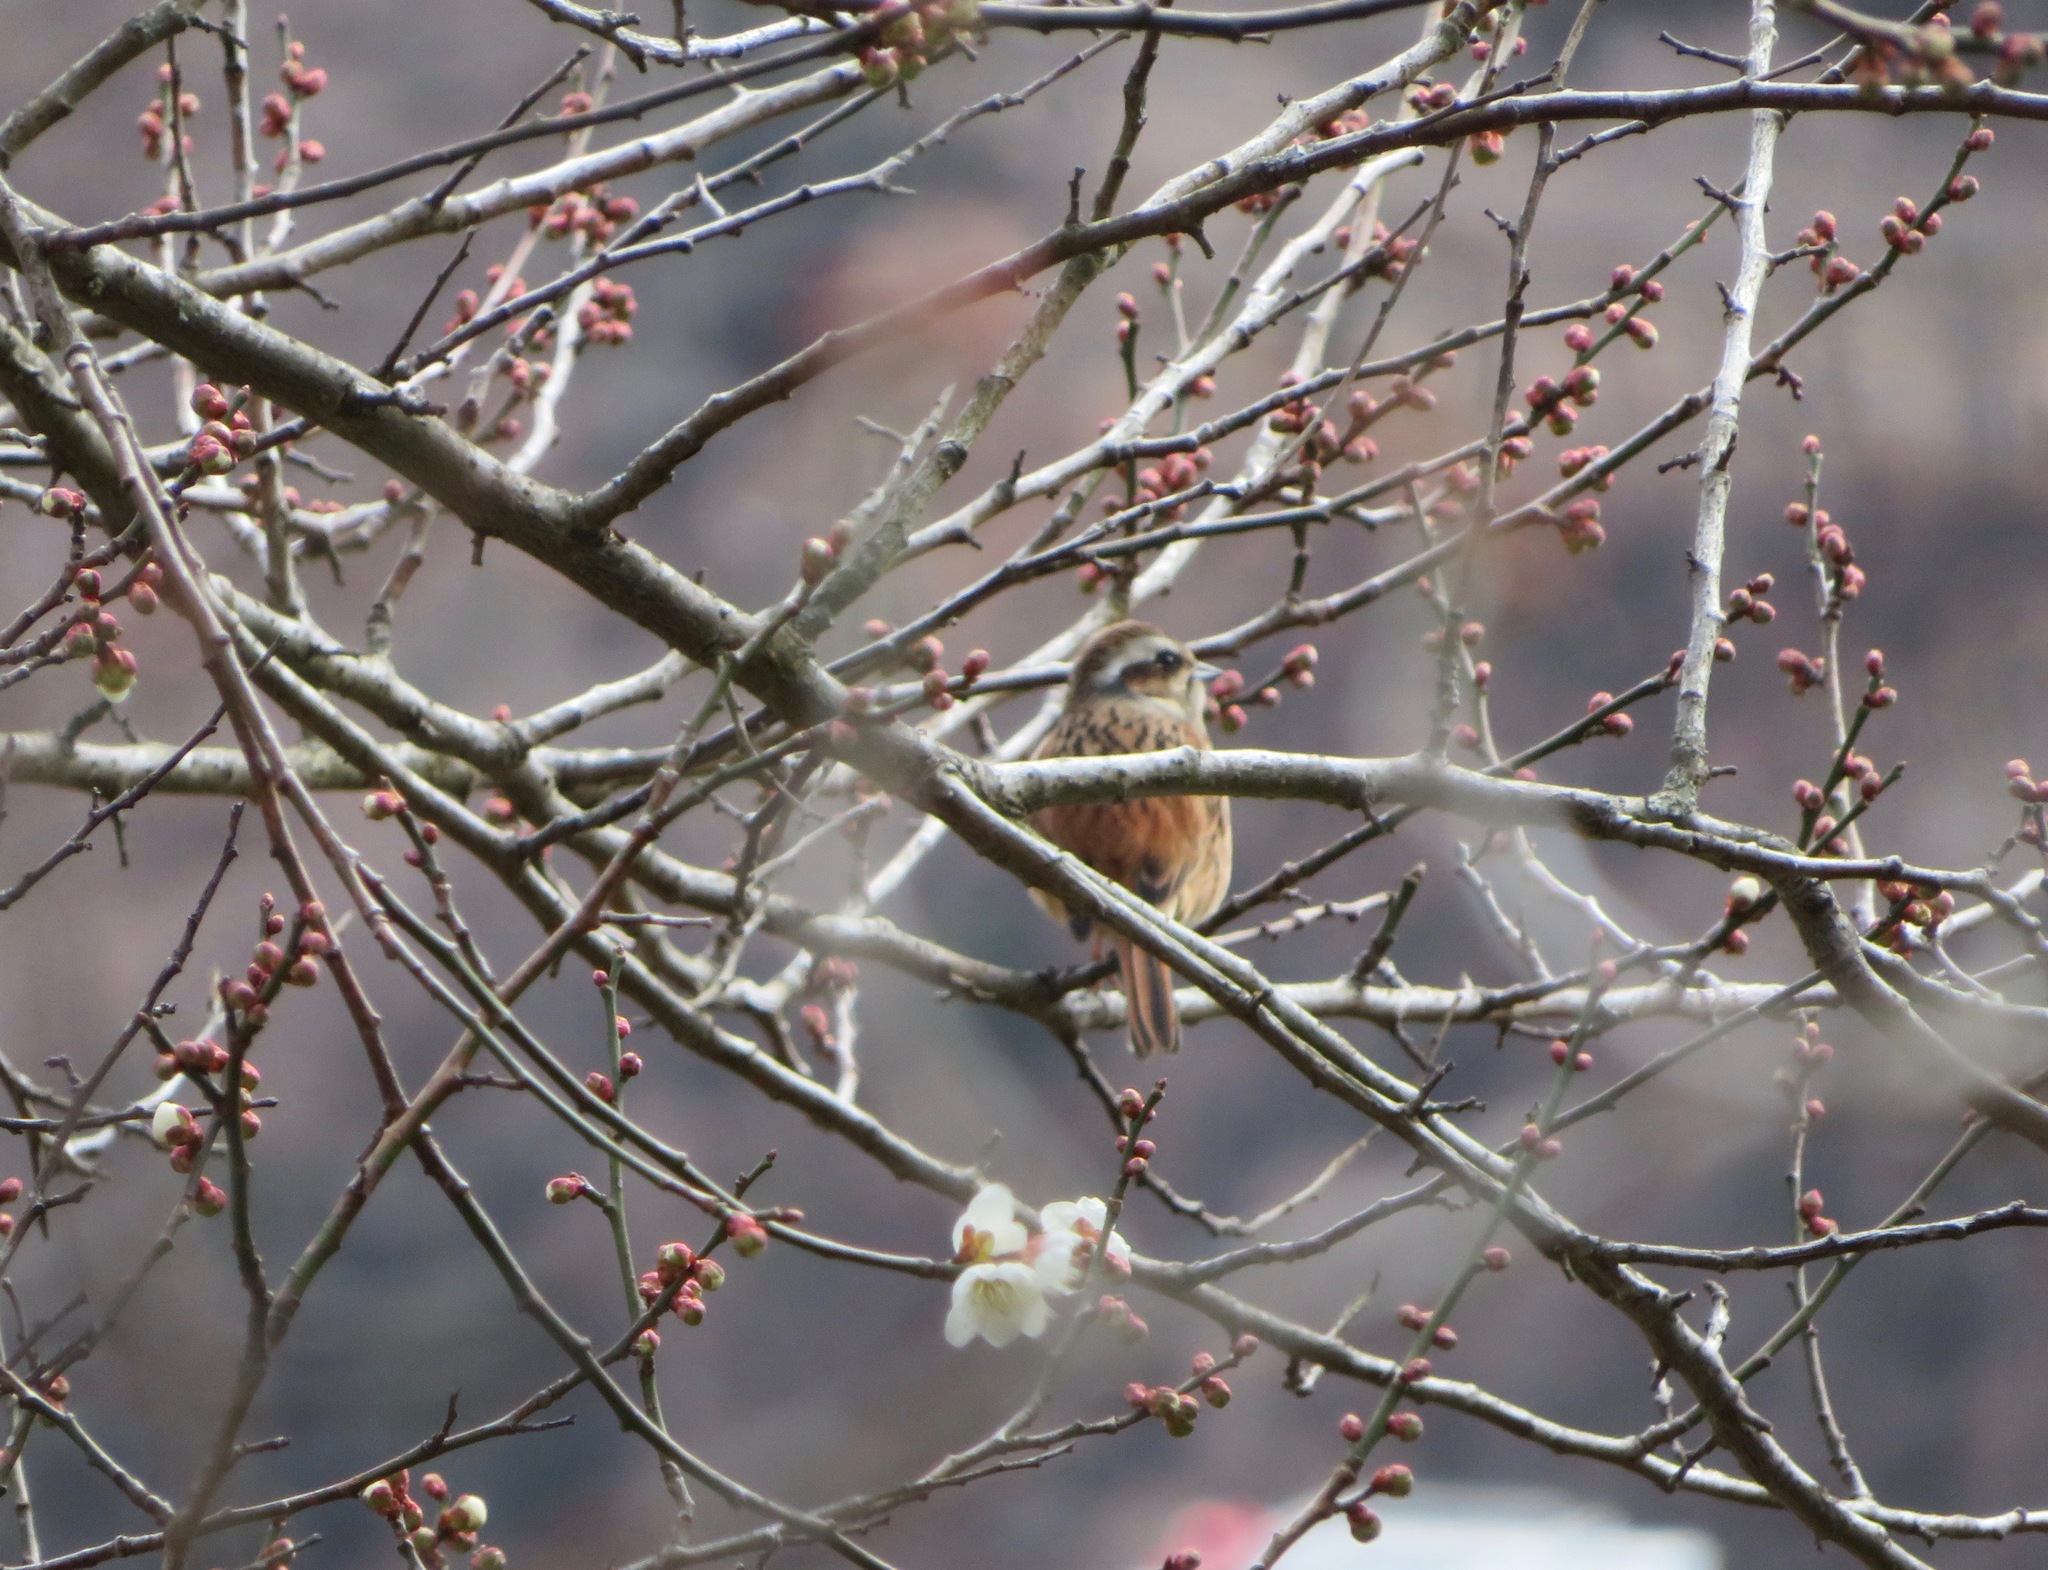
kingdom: Animalia
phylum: Chordata
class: Aves
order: Passeriformes
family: Emberizidae
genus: Emberiza
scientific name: Emberiza cioides
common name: Meadow bunting
